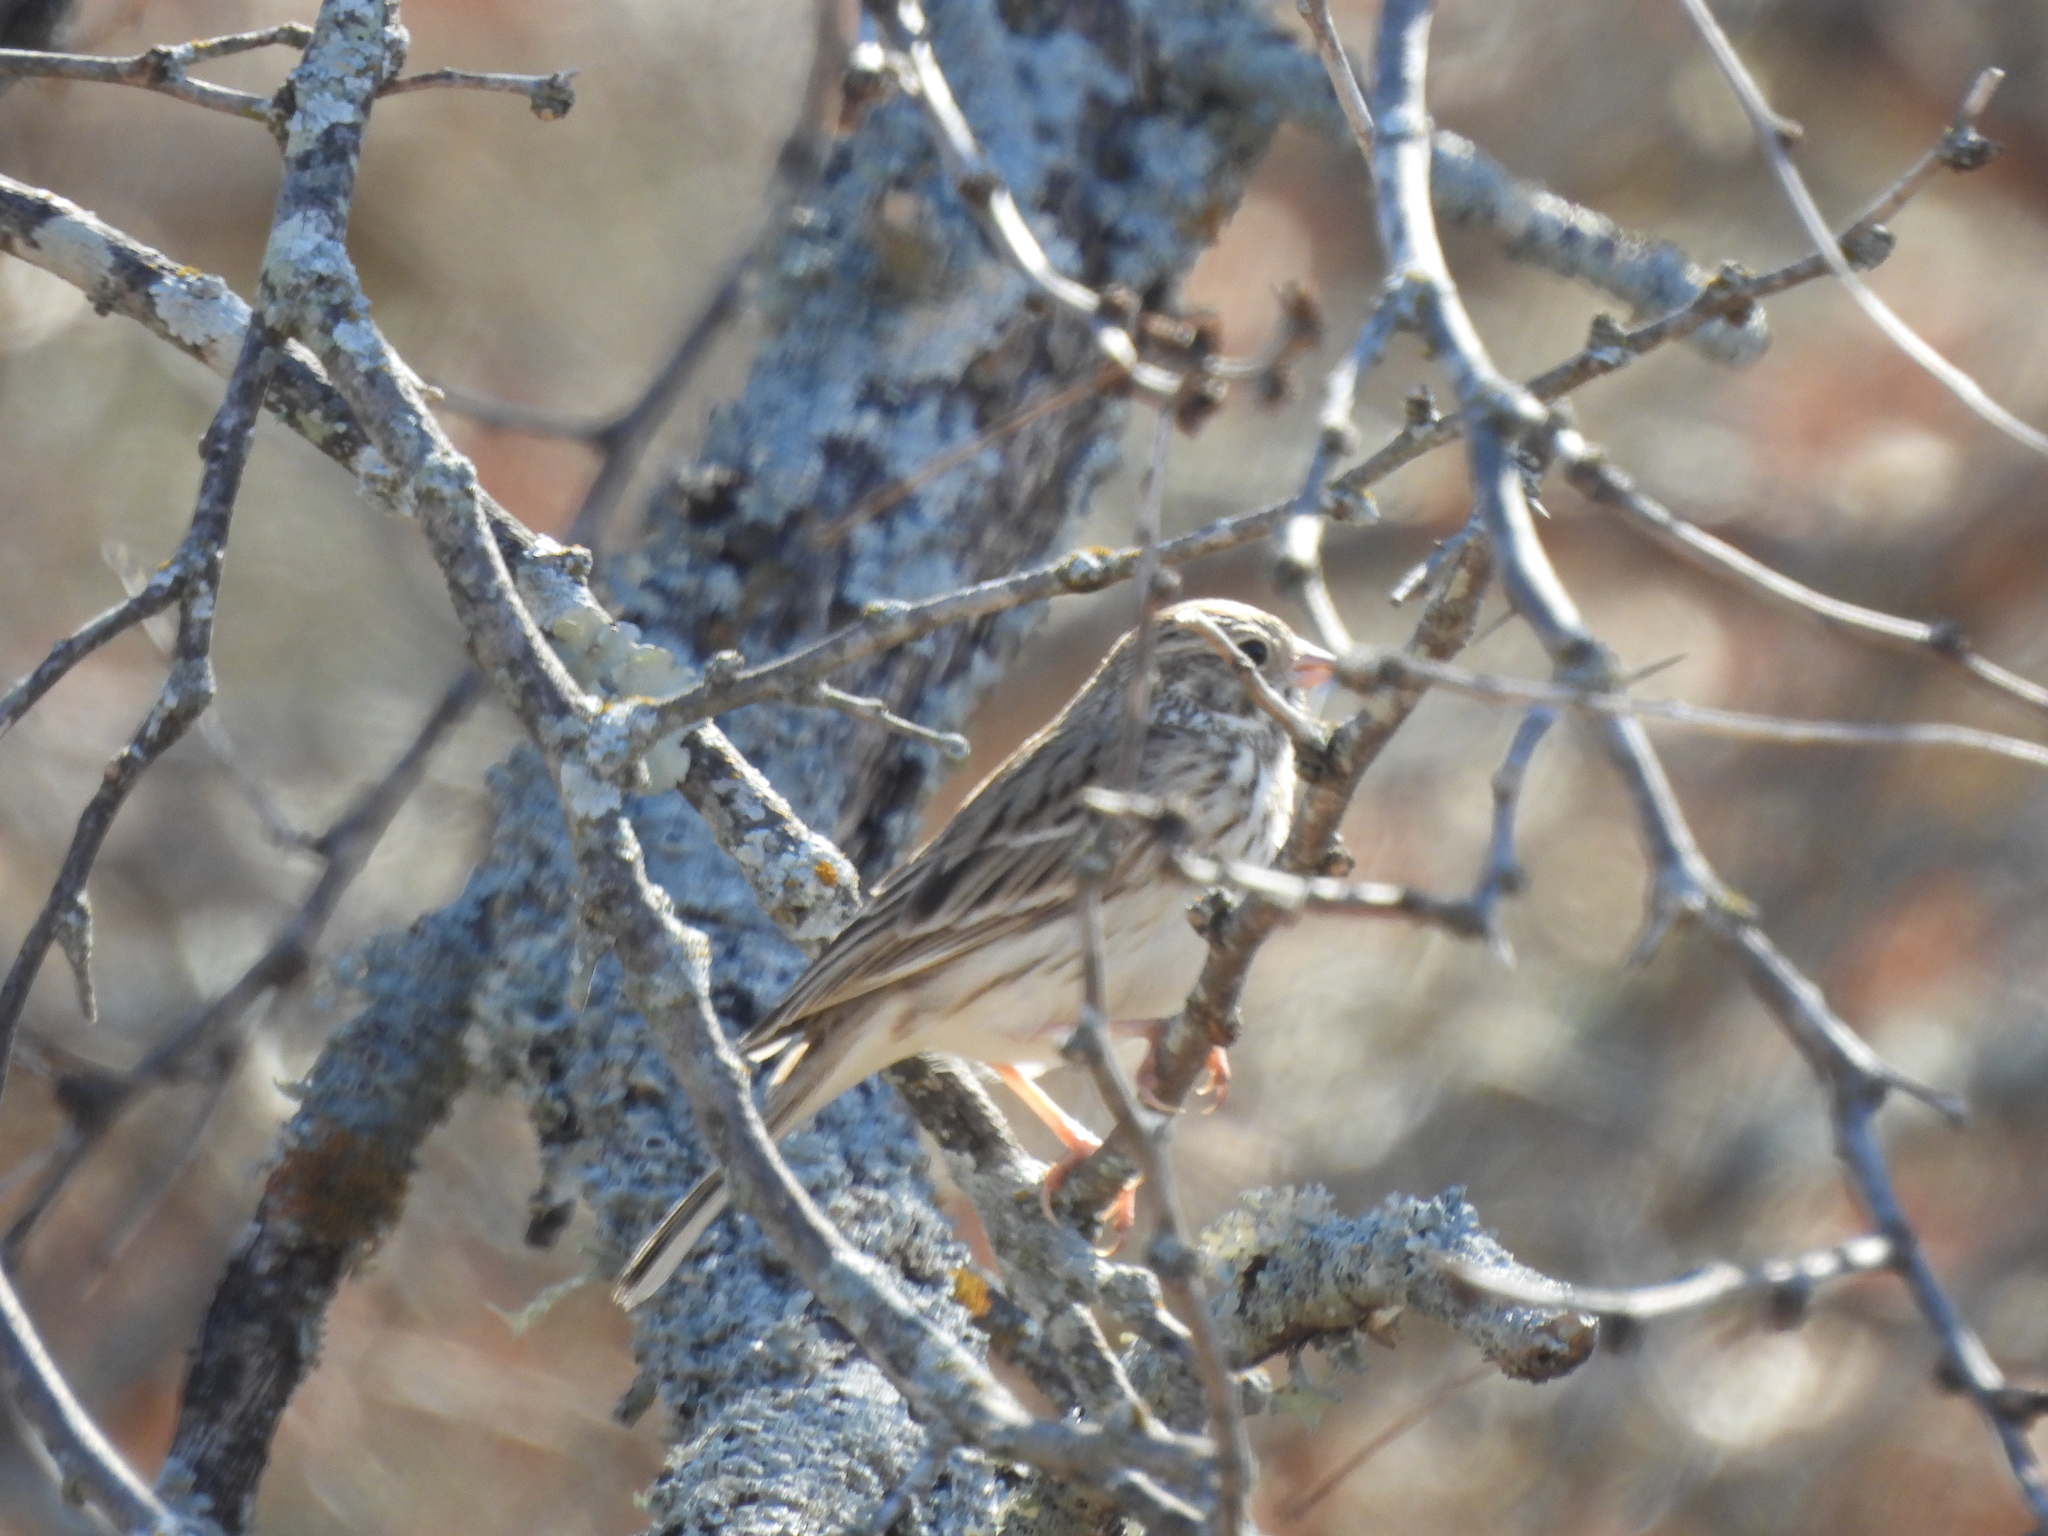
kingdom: Animalia
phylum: Chordata
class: Aves
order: Passeriformes
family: Passerellidae
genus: Pooecetes
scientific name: Pooecetes gramineus
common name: Vesper sparrow
